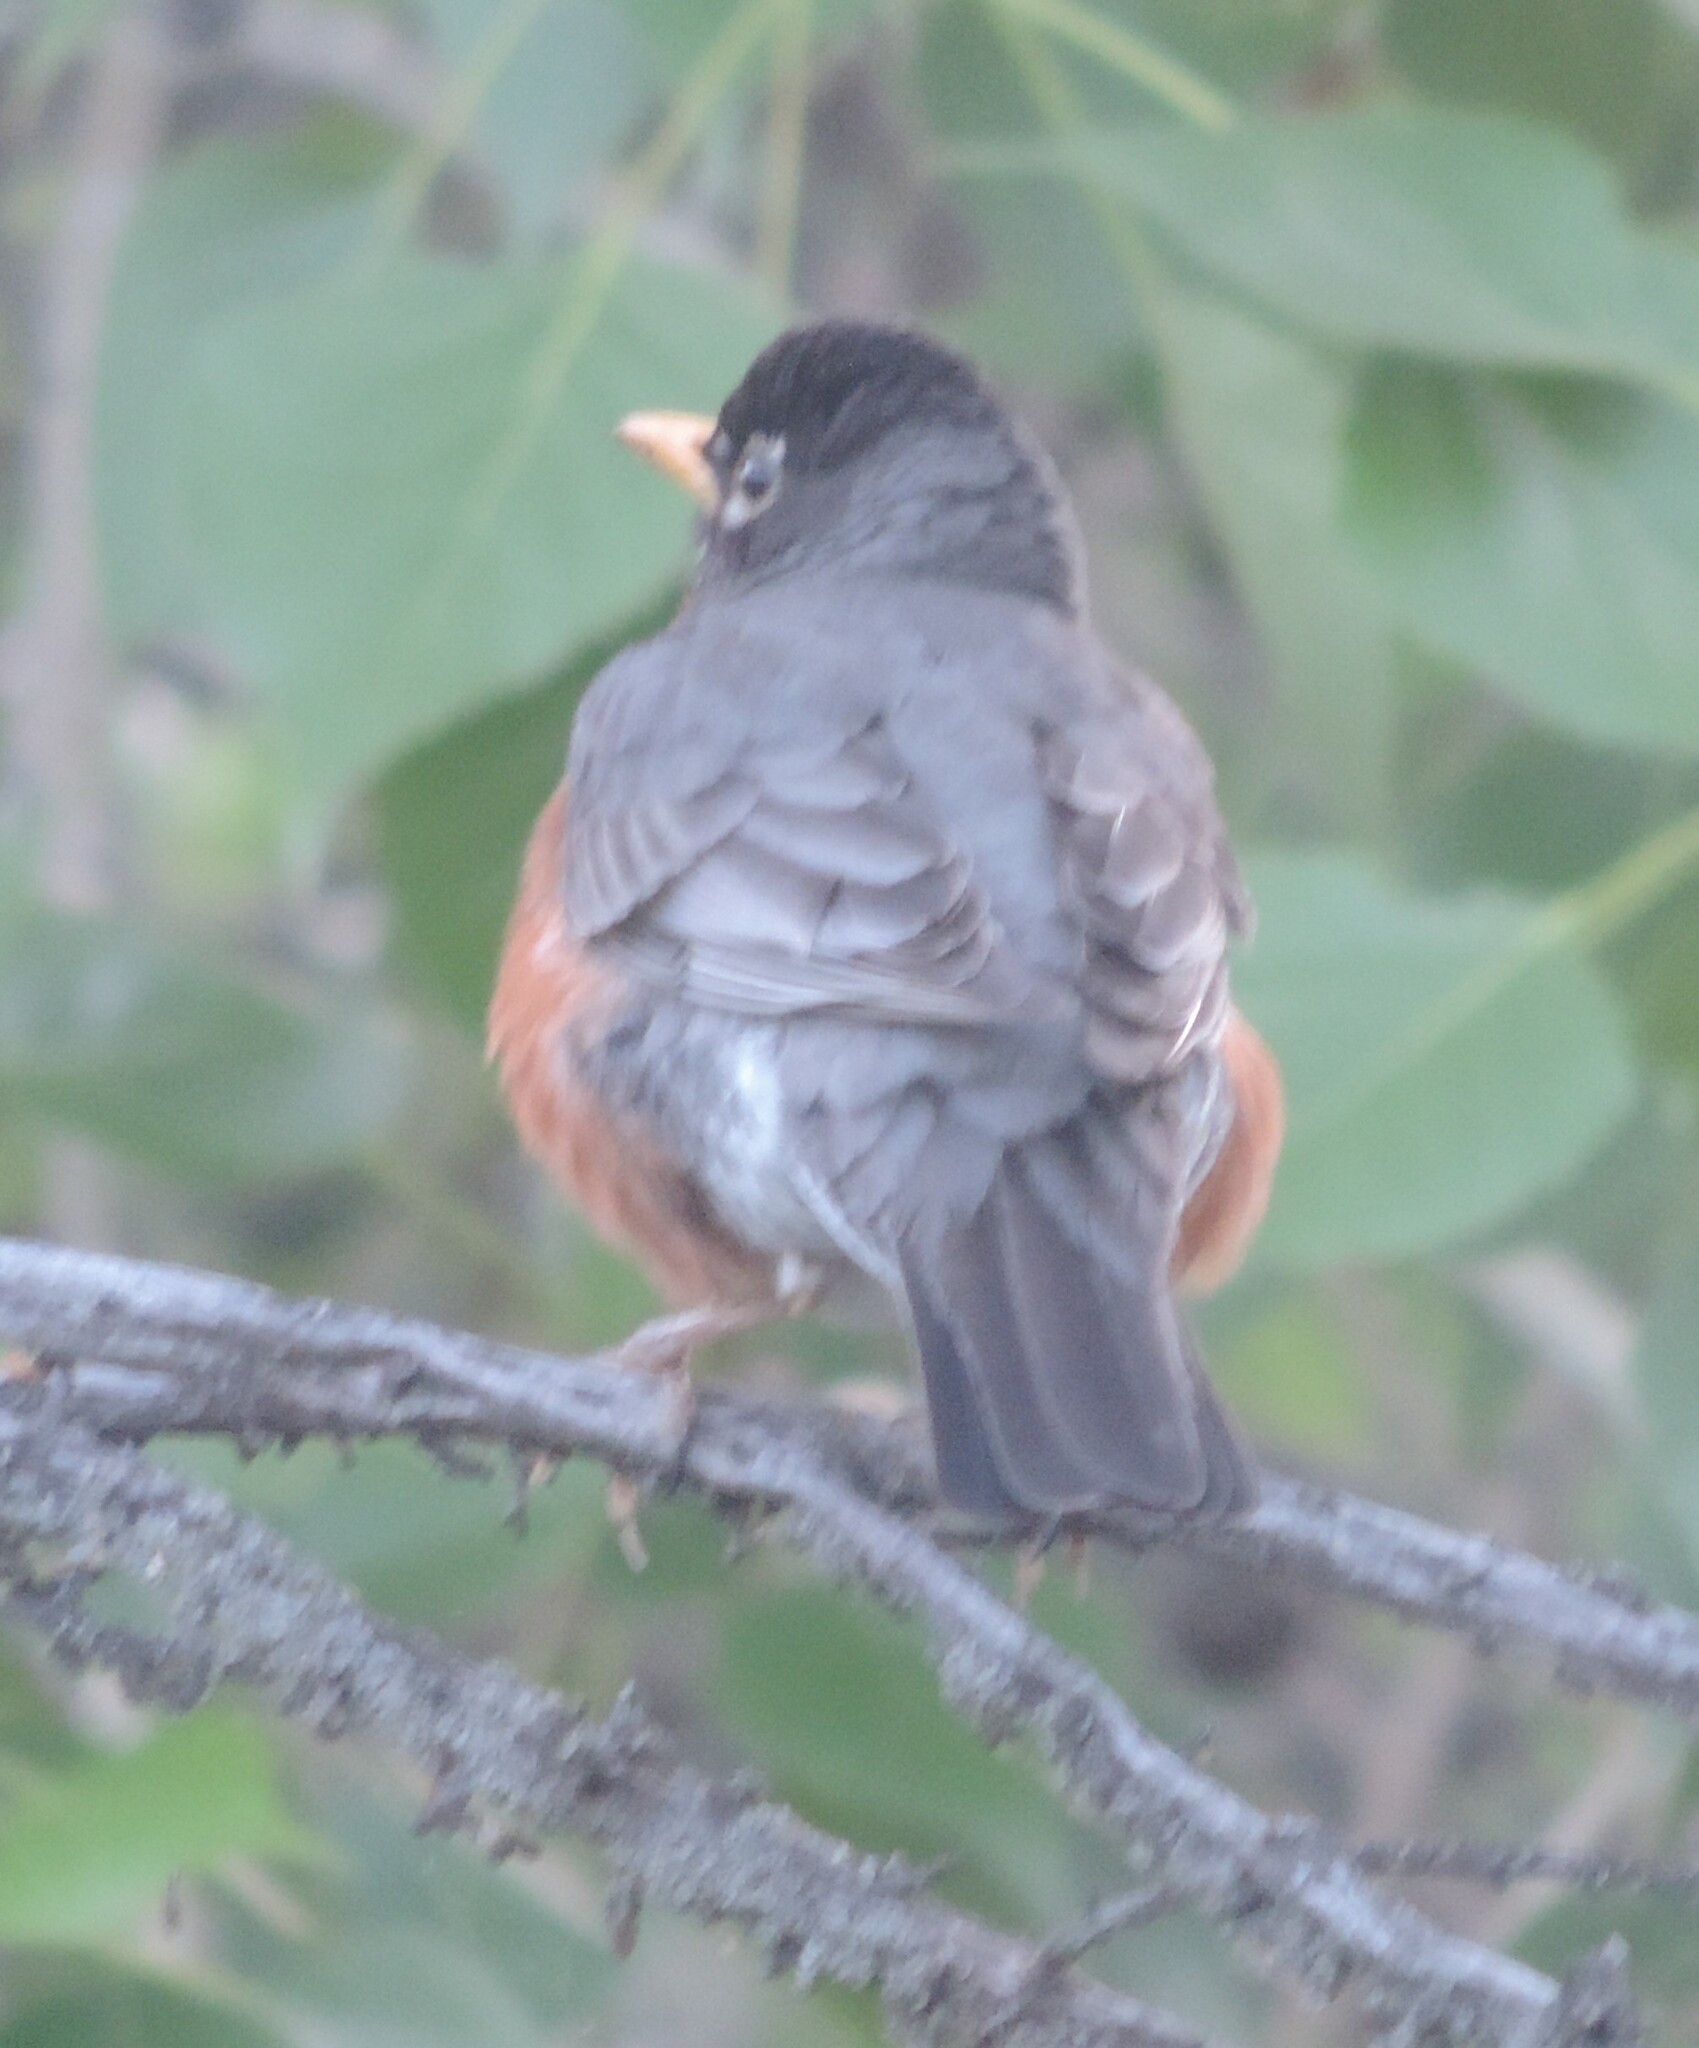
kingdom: Animalia
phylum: Chordata
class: Aves
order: Passeriformes
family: Turdidae
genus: Turdus
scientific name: Turdus migratorius
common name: American robin
